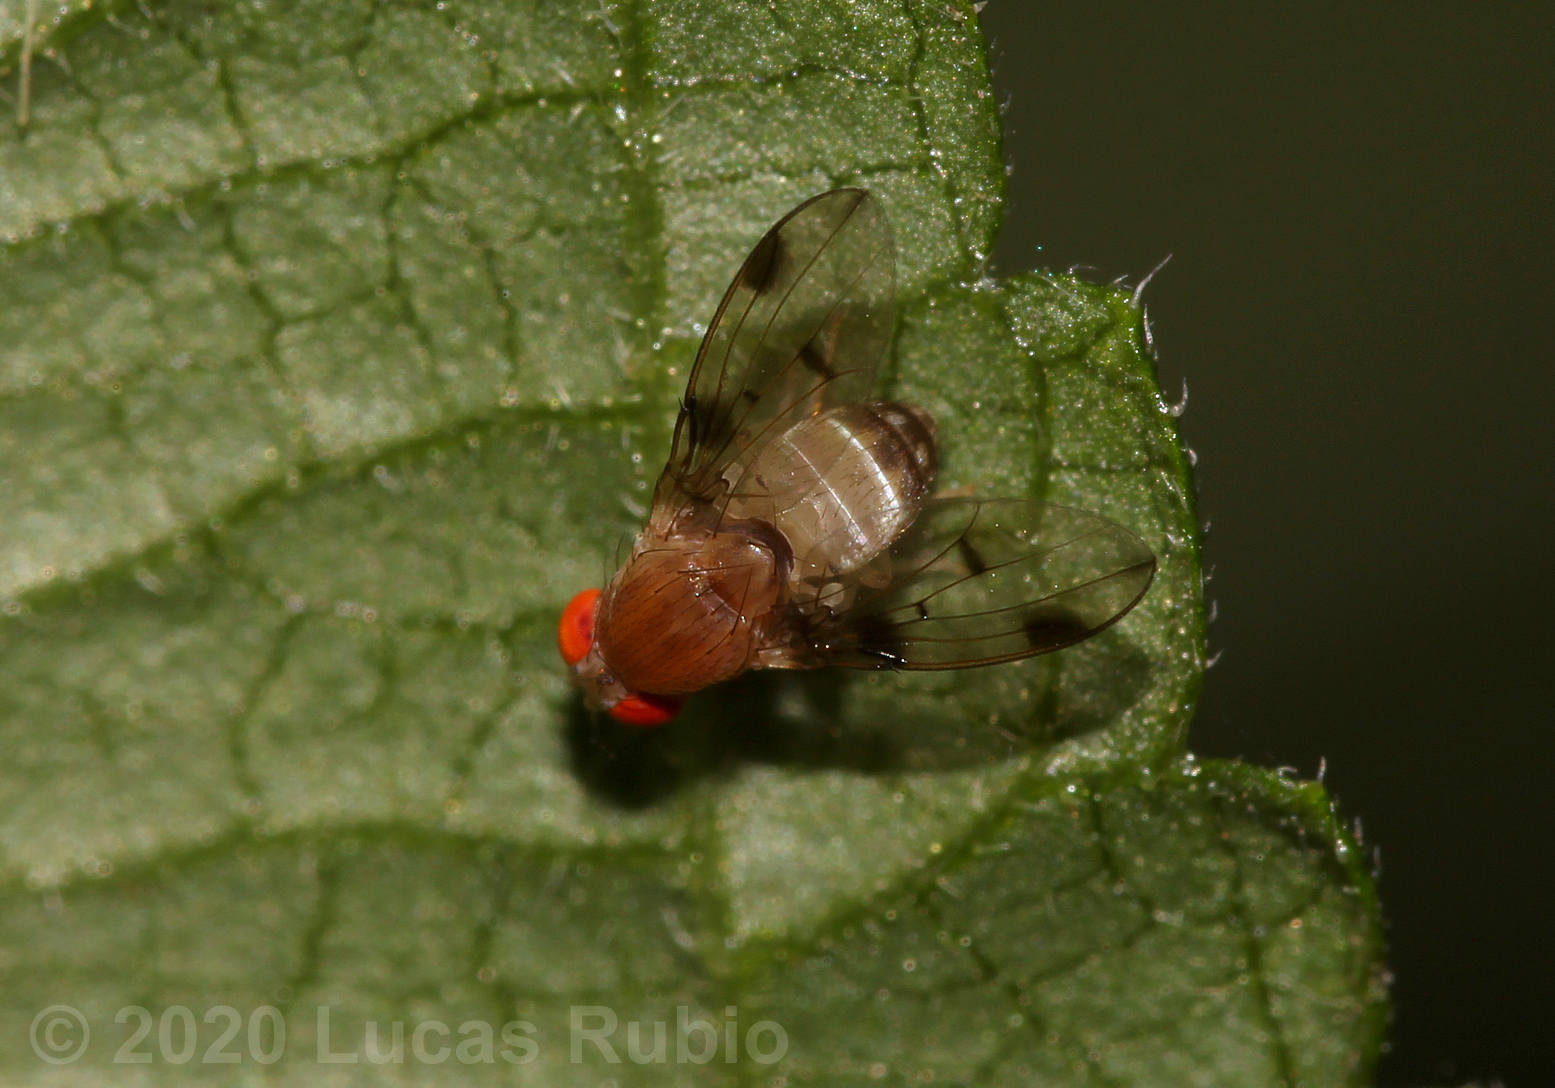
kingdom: Animalia
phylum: Arthropoda
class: Insecta
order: Diptera
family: Drosophilidae
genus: Leucophenga
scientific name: Leucophenga maculosa
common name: Pomace fly
